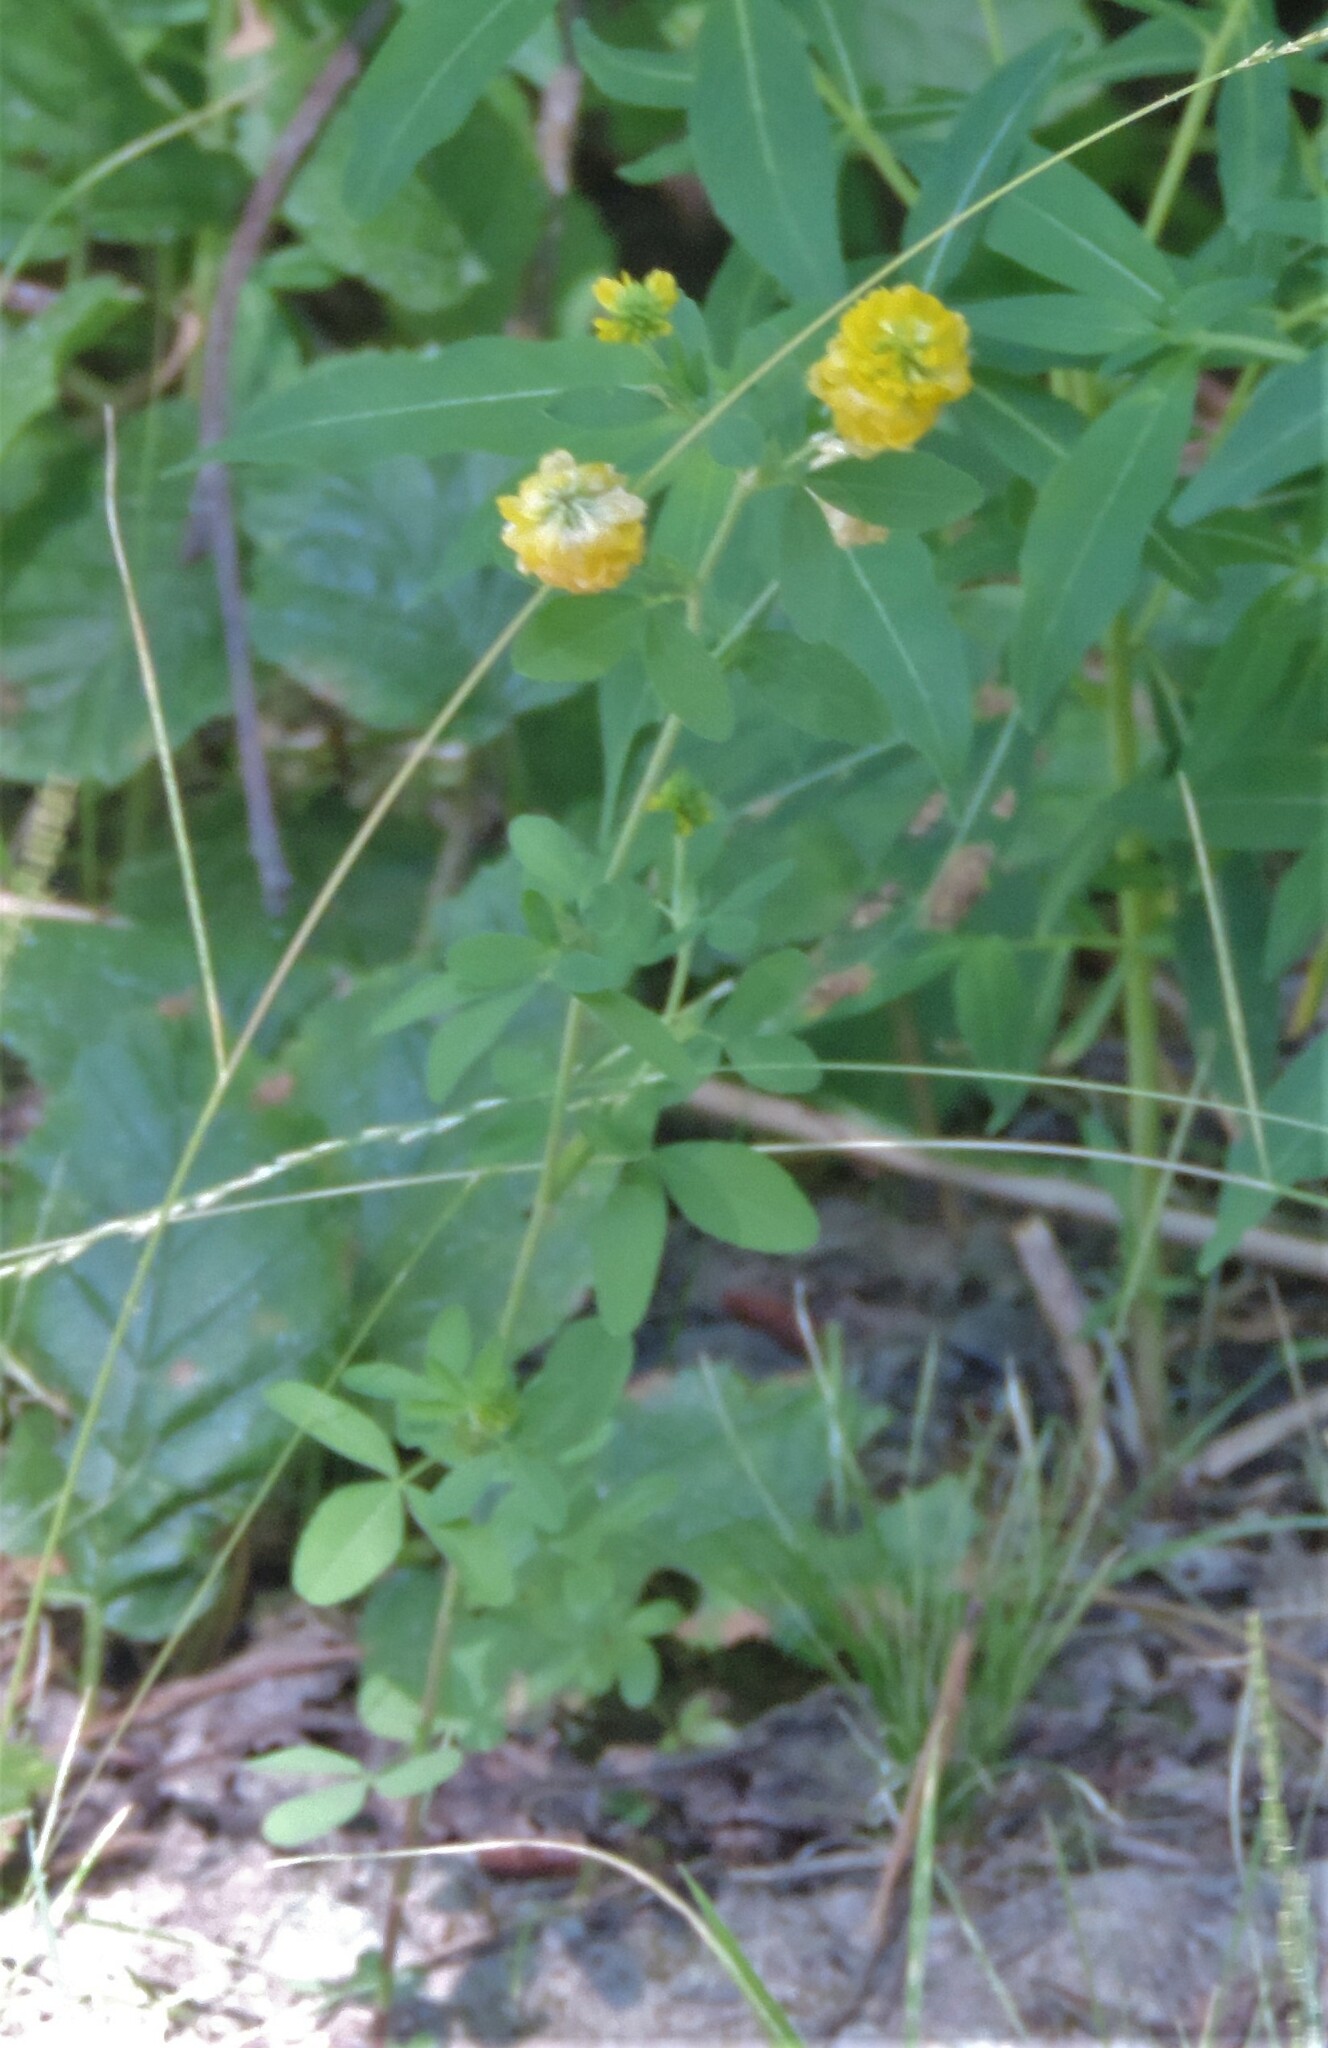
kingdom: Plantae
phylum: Tracheophyta
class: Magnoliopsida
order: Fabales
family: Fabaceae
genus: Trifolium
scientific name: Trifolium aureum
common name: Golden clover
